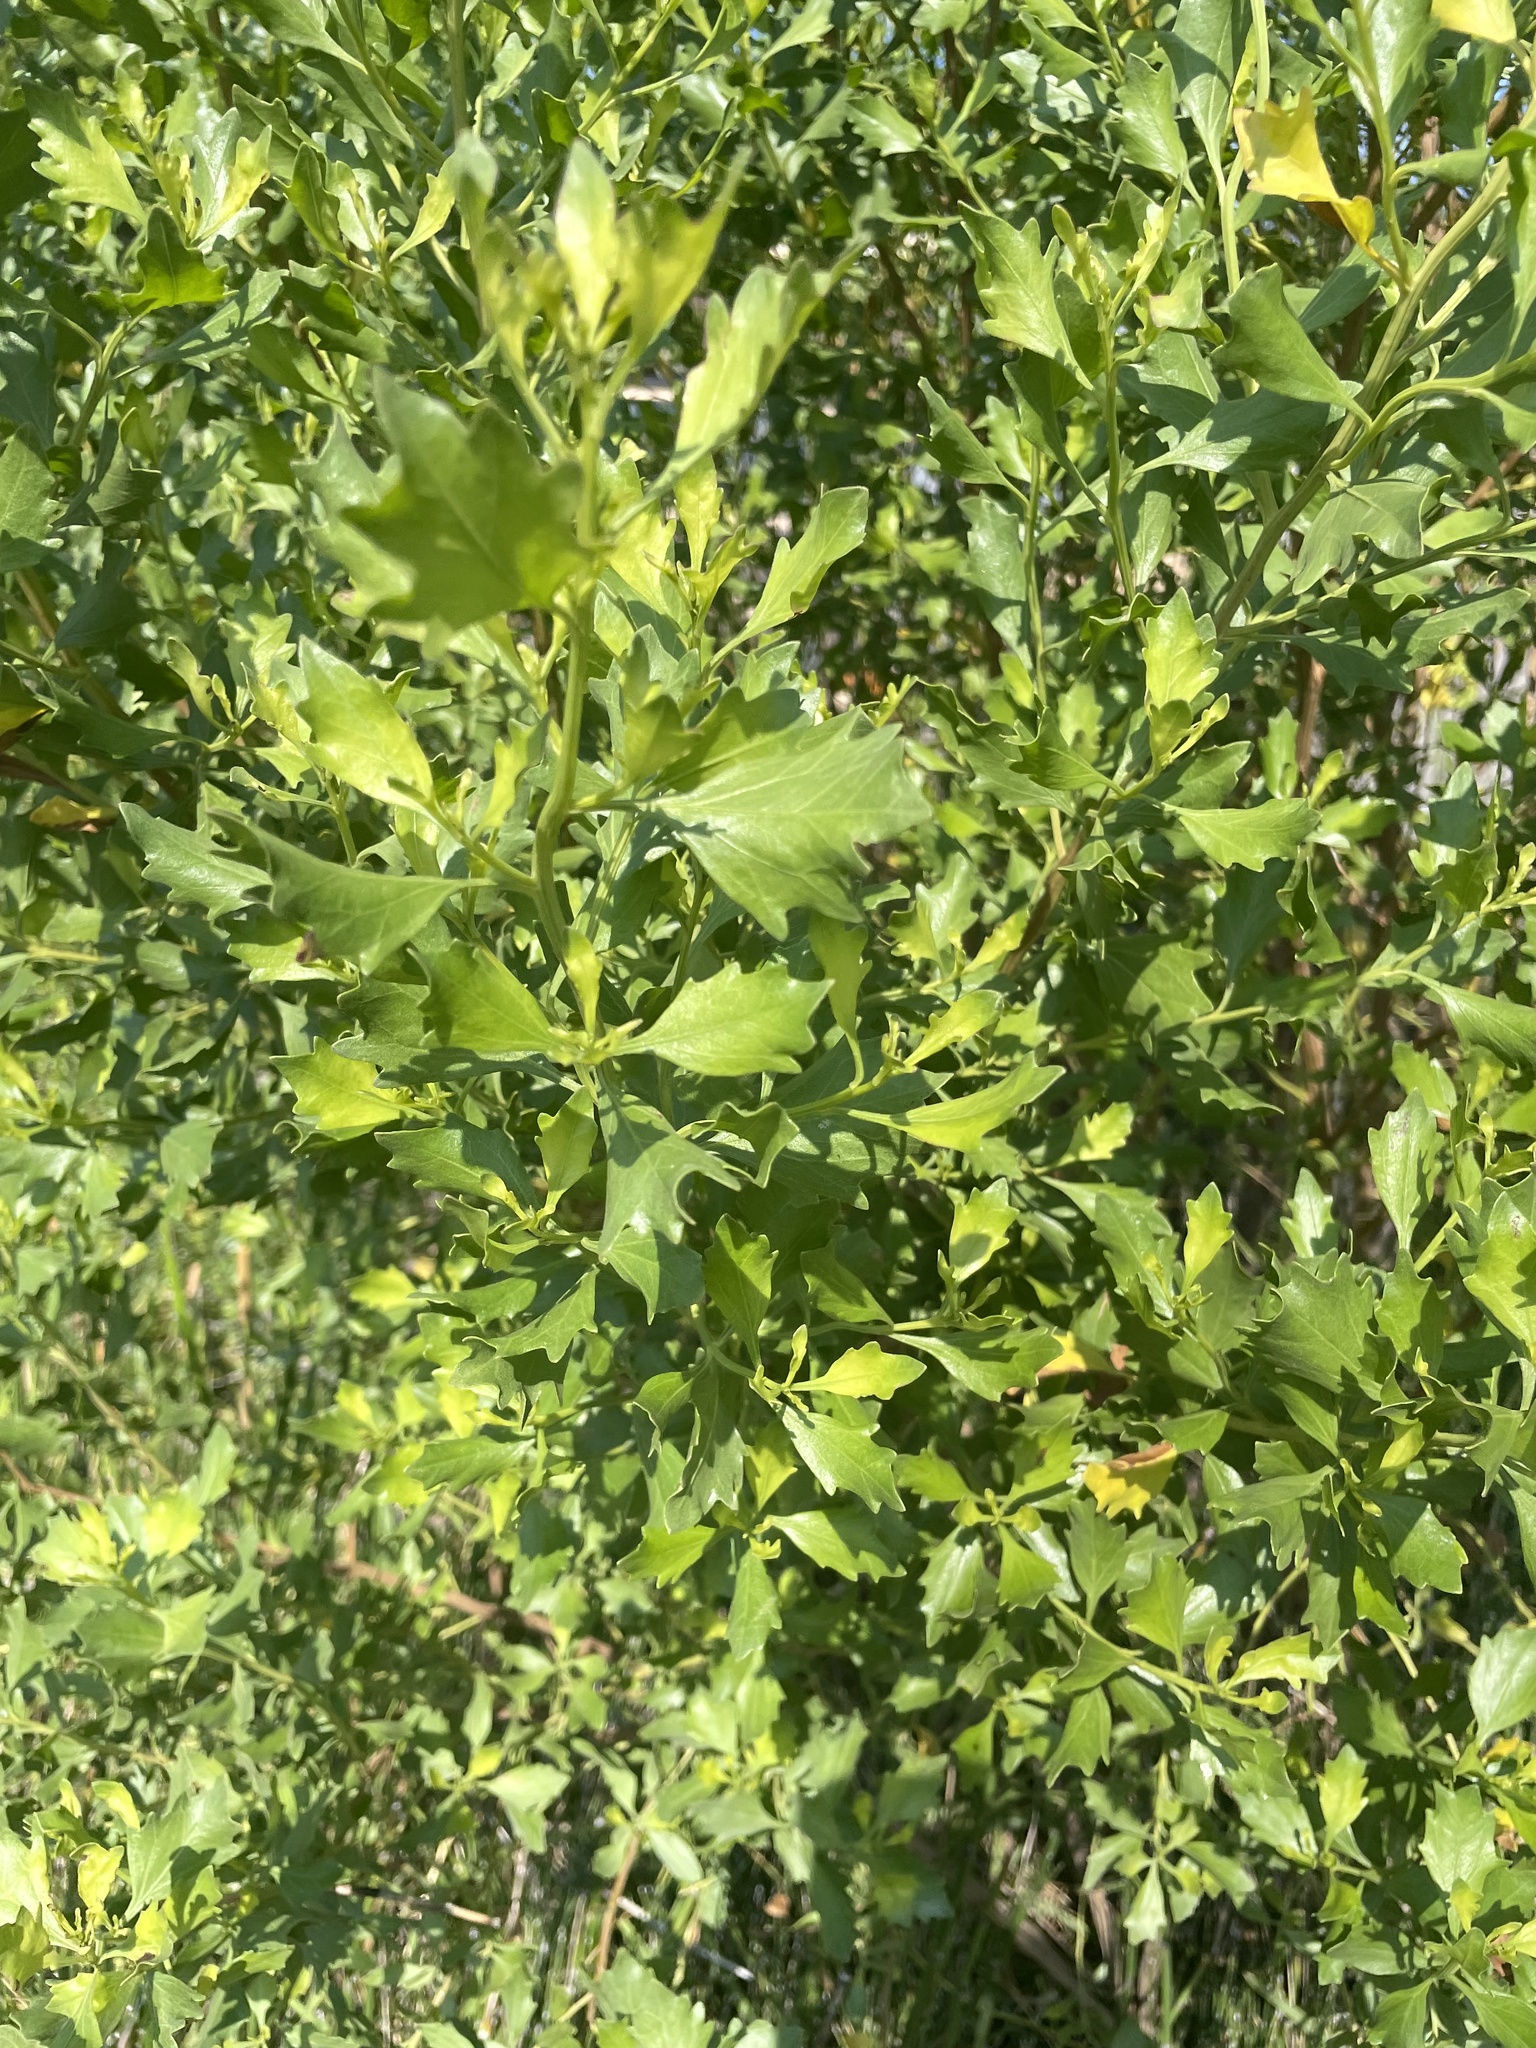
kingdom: Plantae
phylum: Tracheophyta
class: Magnoliopsida
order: Asterales
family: Asteraceae
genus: Baccharis
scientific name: Baccharis halimifolia
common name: Eastern baccharis
